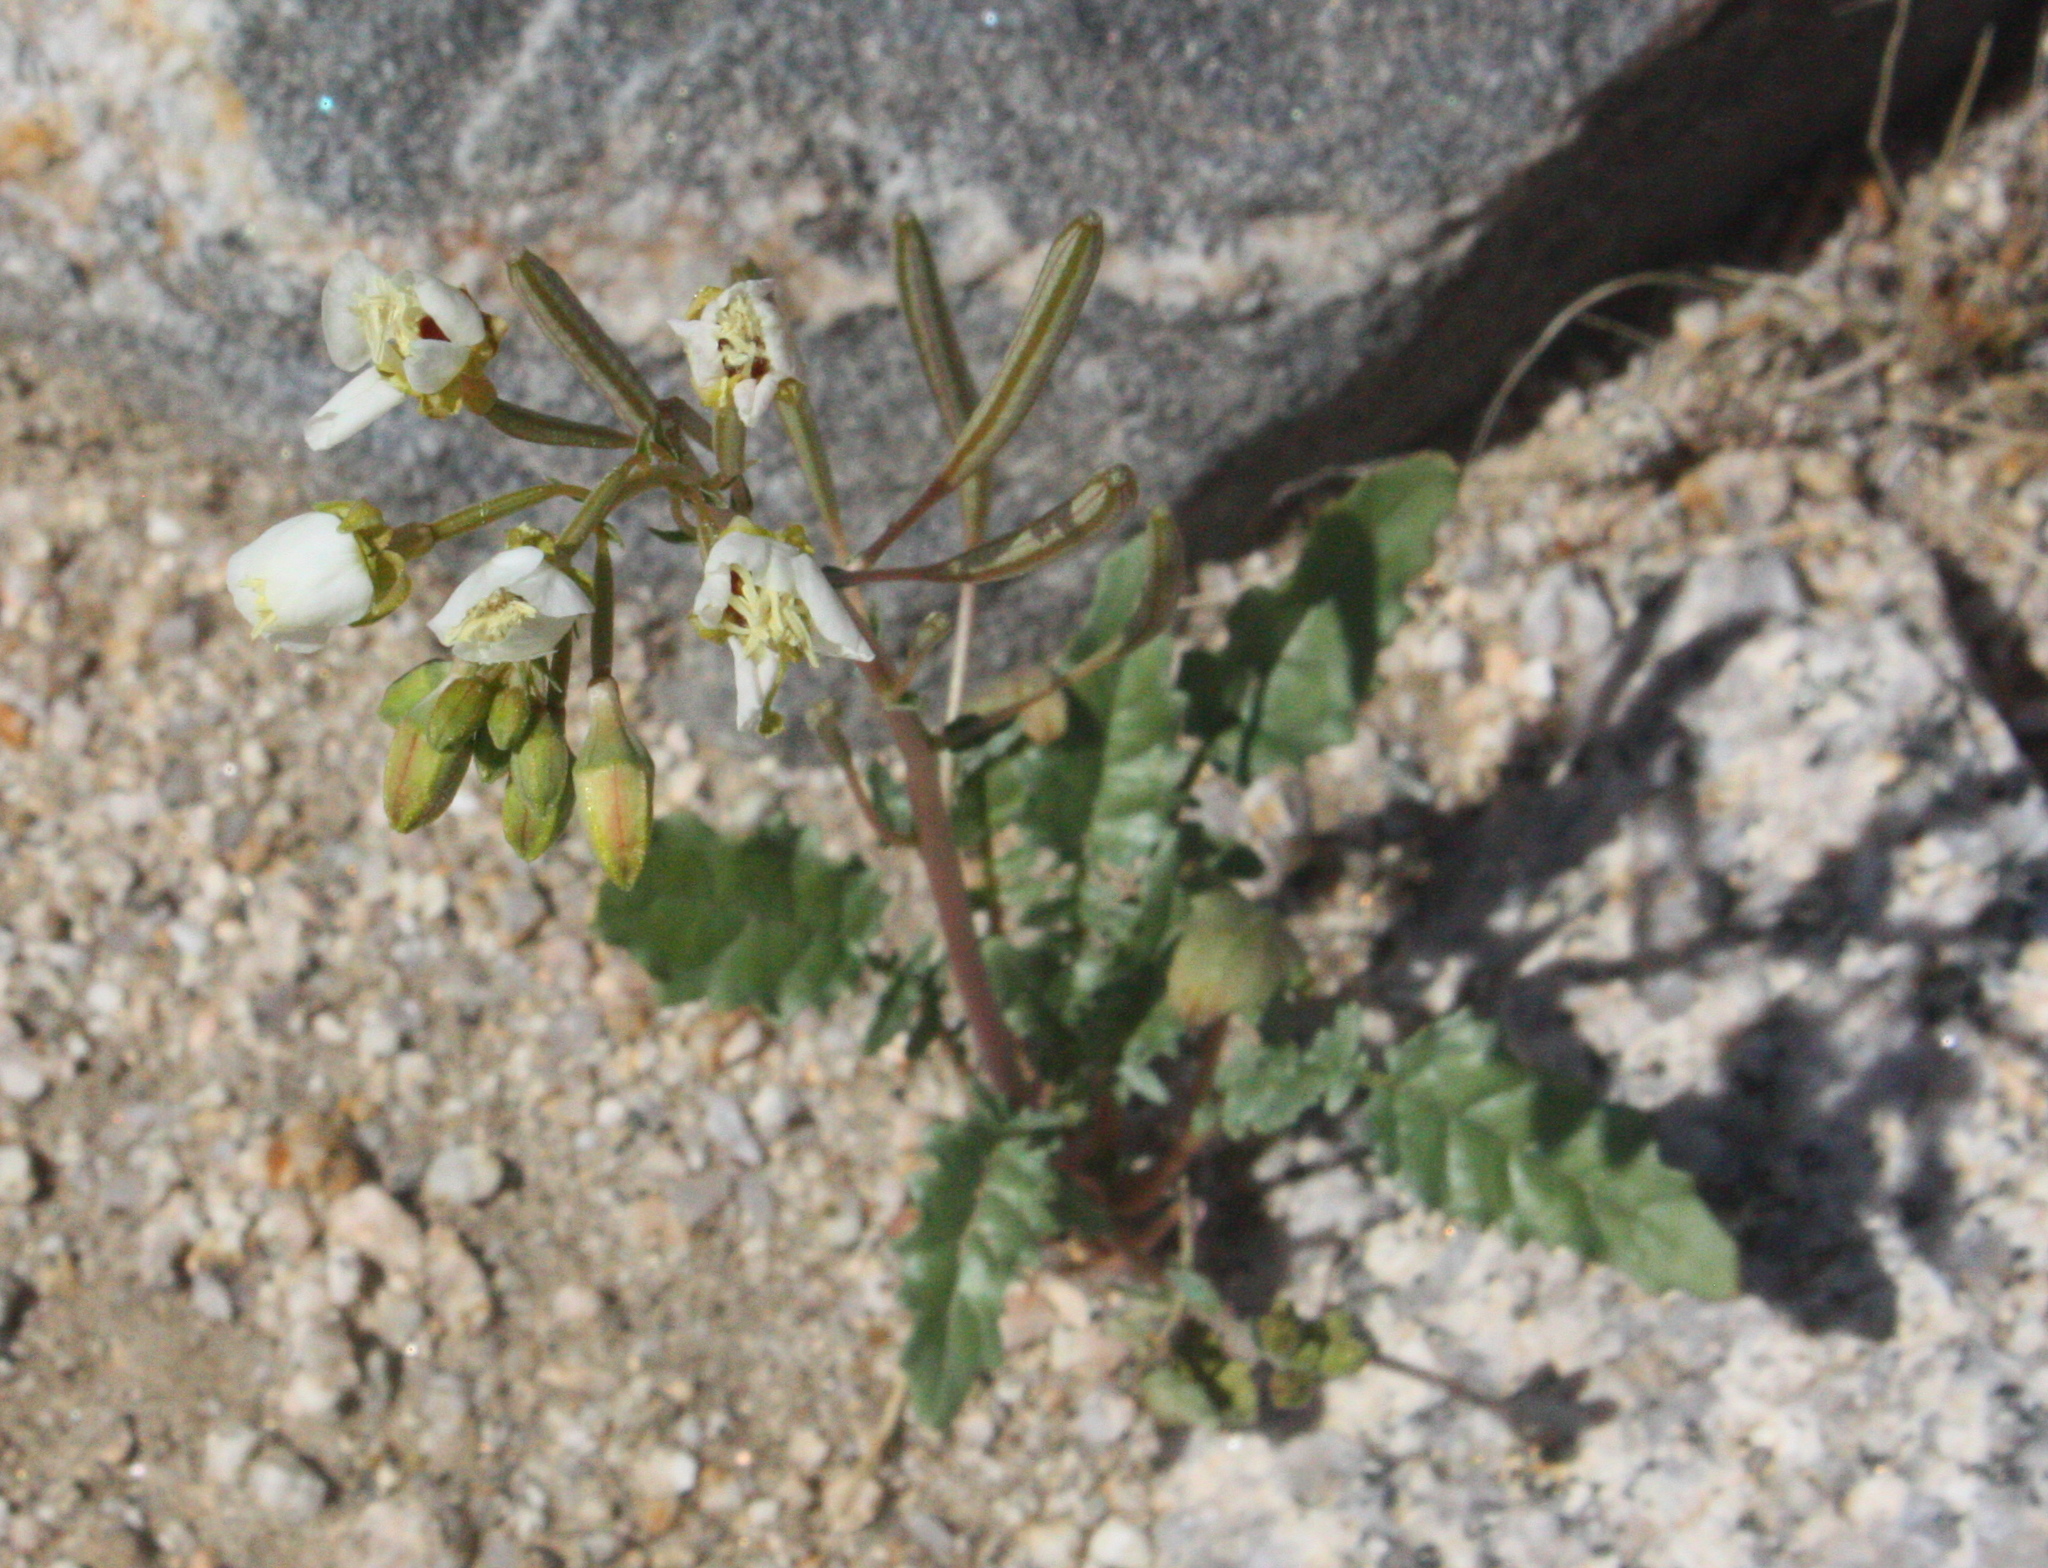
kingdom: Plantae
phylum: Tracheophyta
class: Magnoliopsida
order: Myrtales
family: Onagraceae
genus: Chylismia
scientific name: Chylismia claviformis
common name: Browneyes
